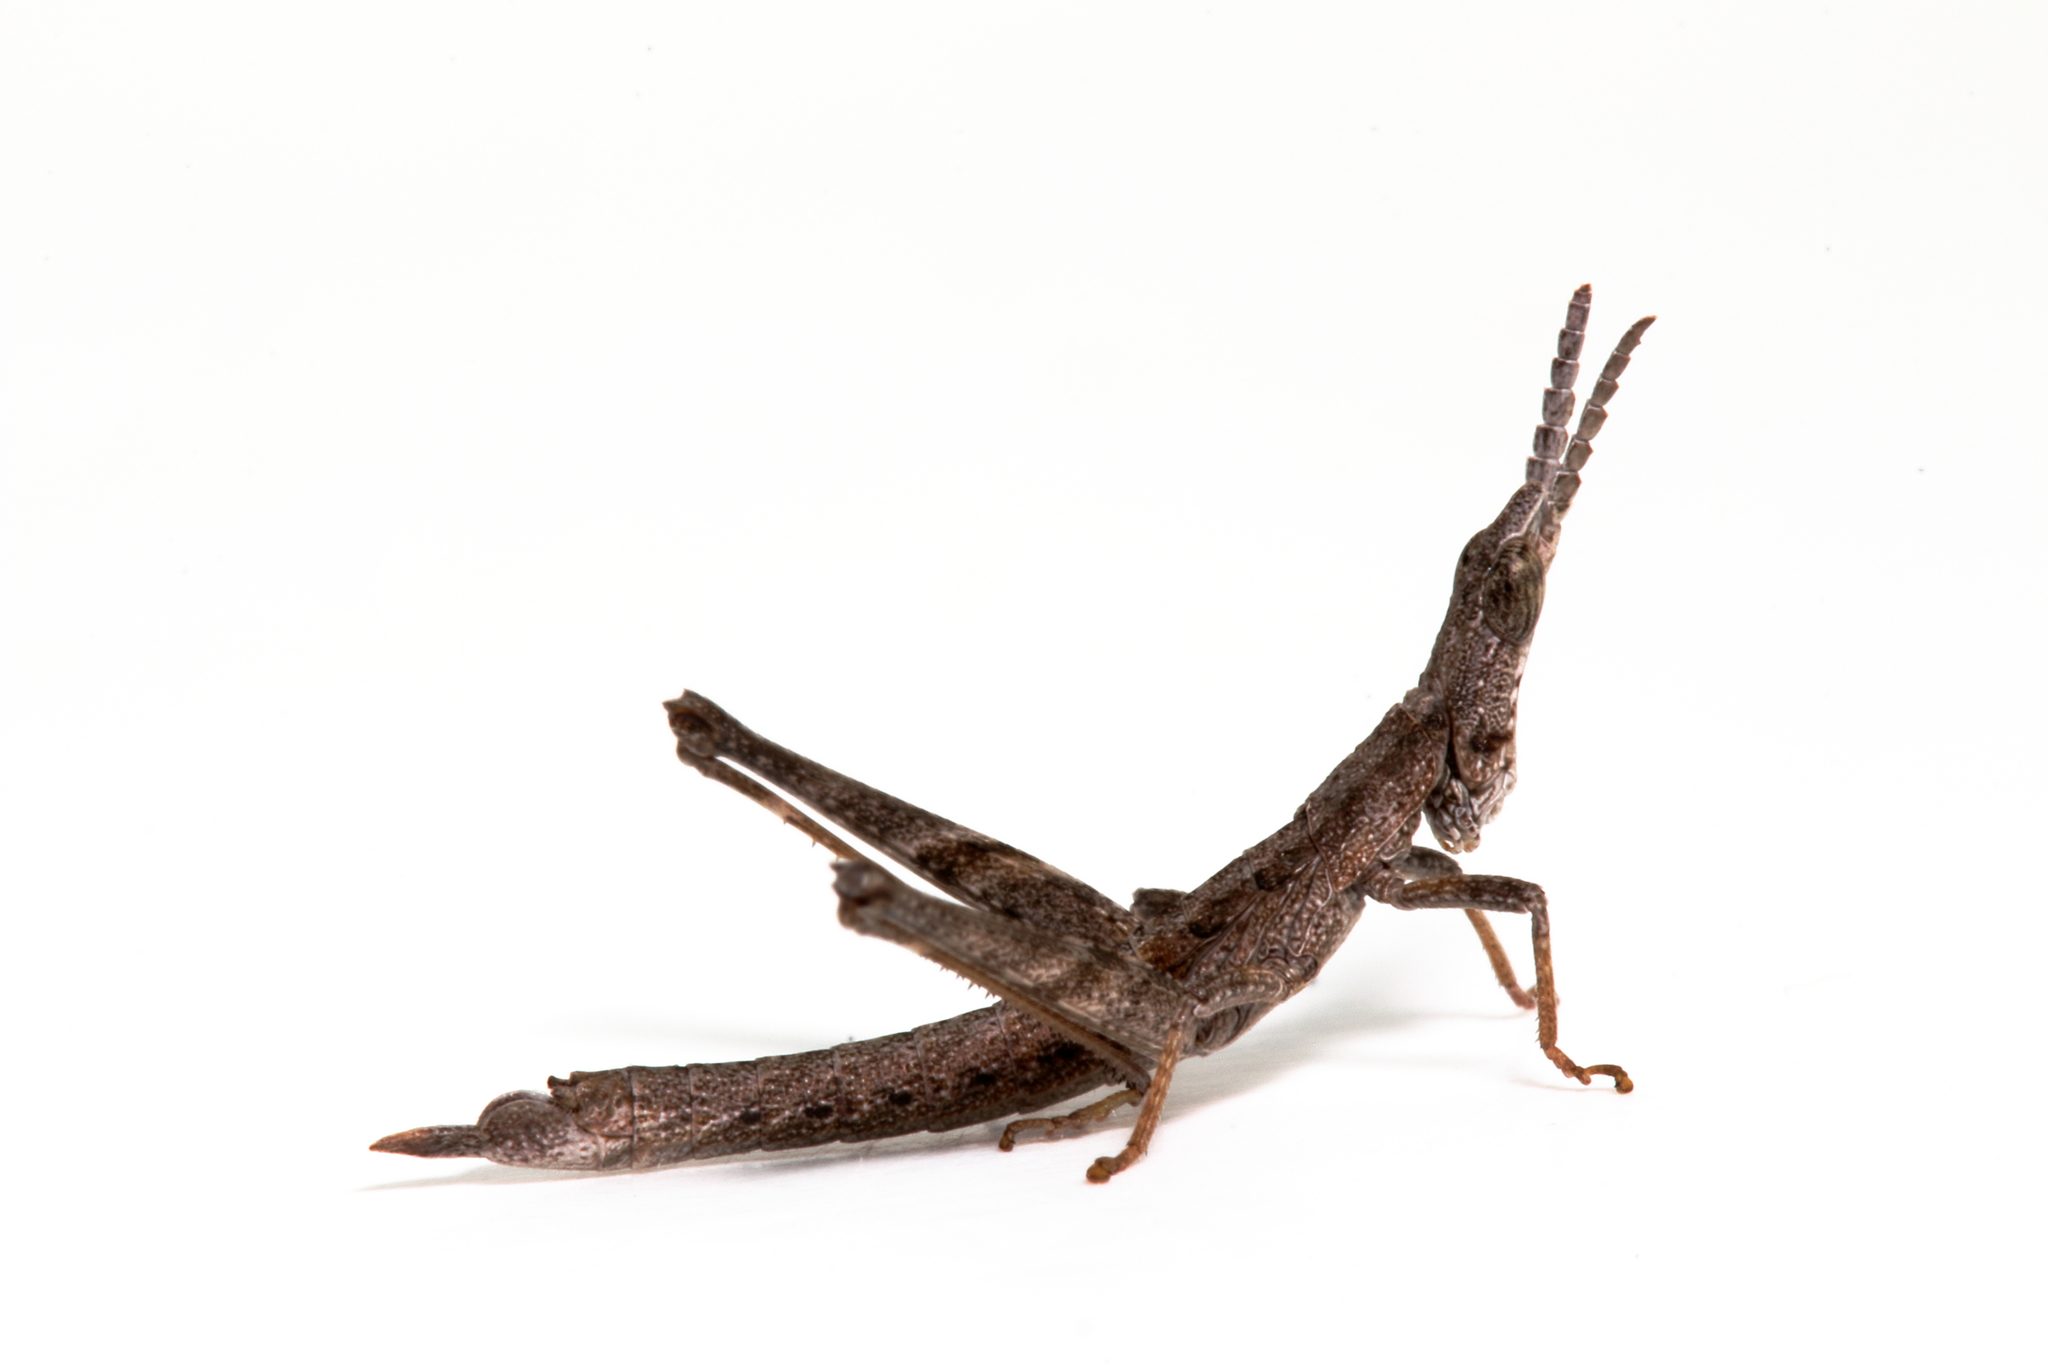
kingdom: Animalia
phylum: Arthropoda
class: Insecta
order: Orthoptera
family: Morabidae
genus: Keyacris
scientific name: Keyacris scurra
